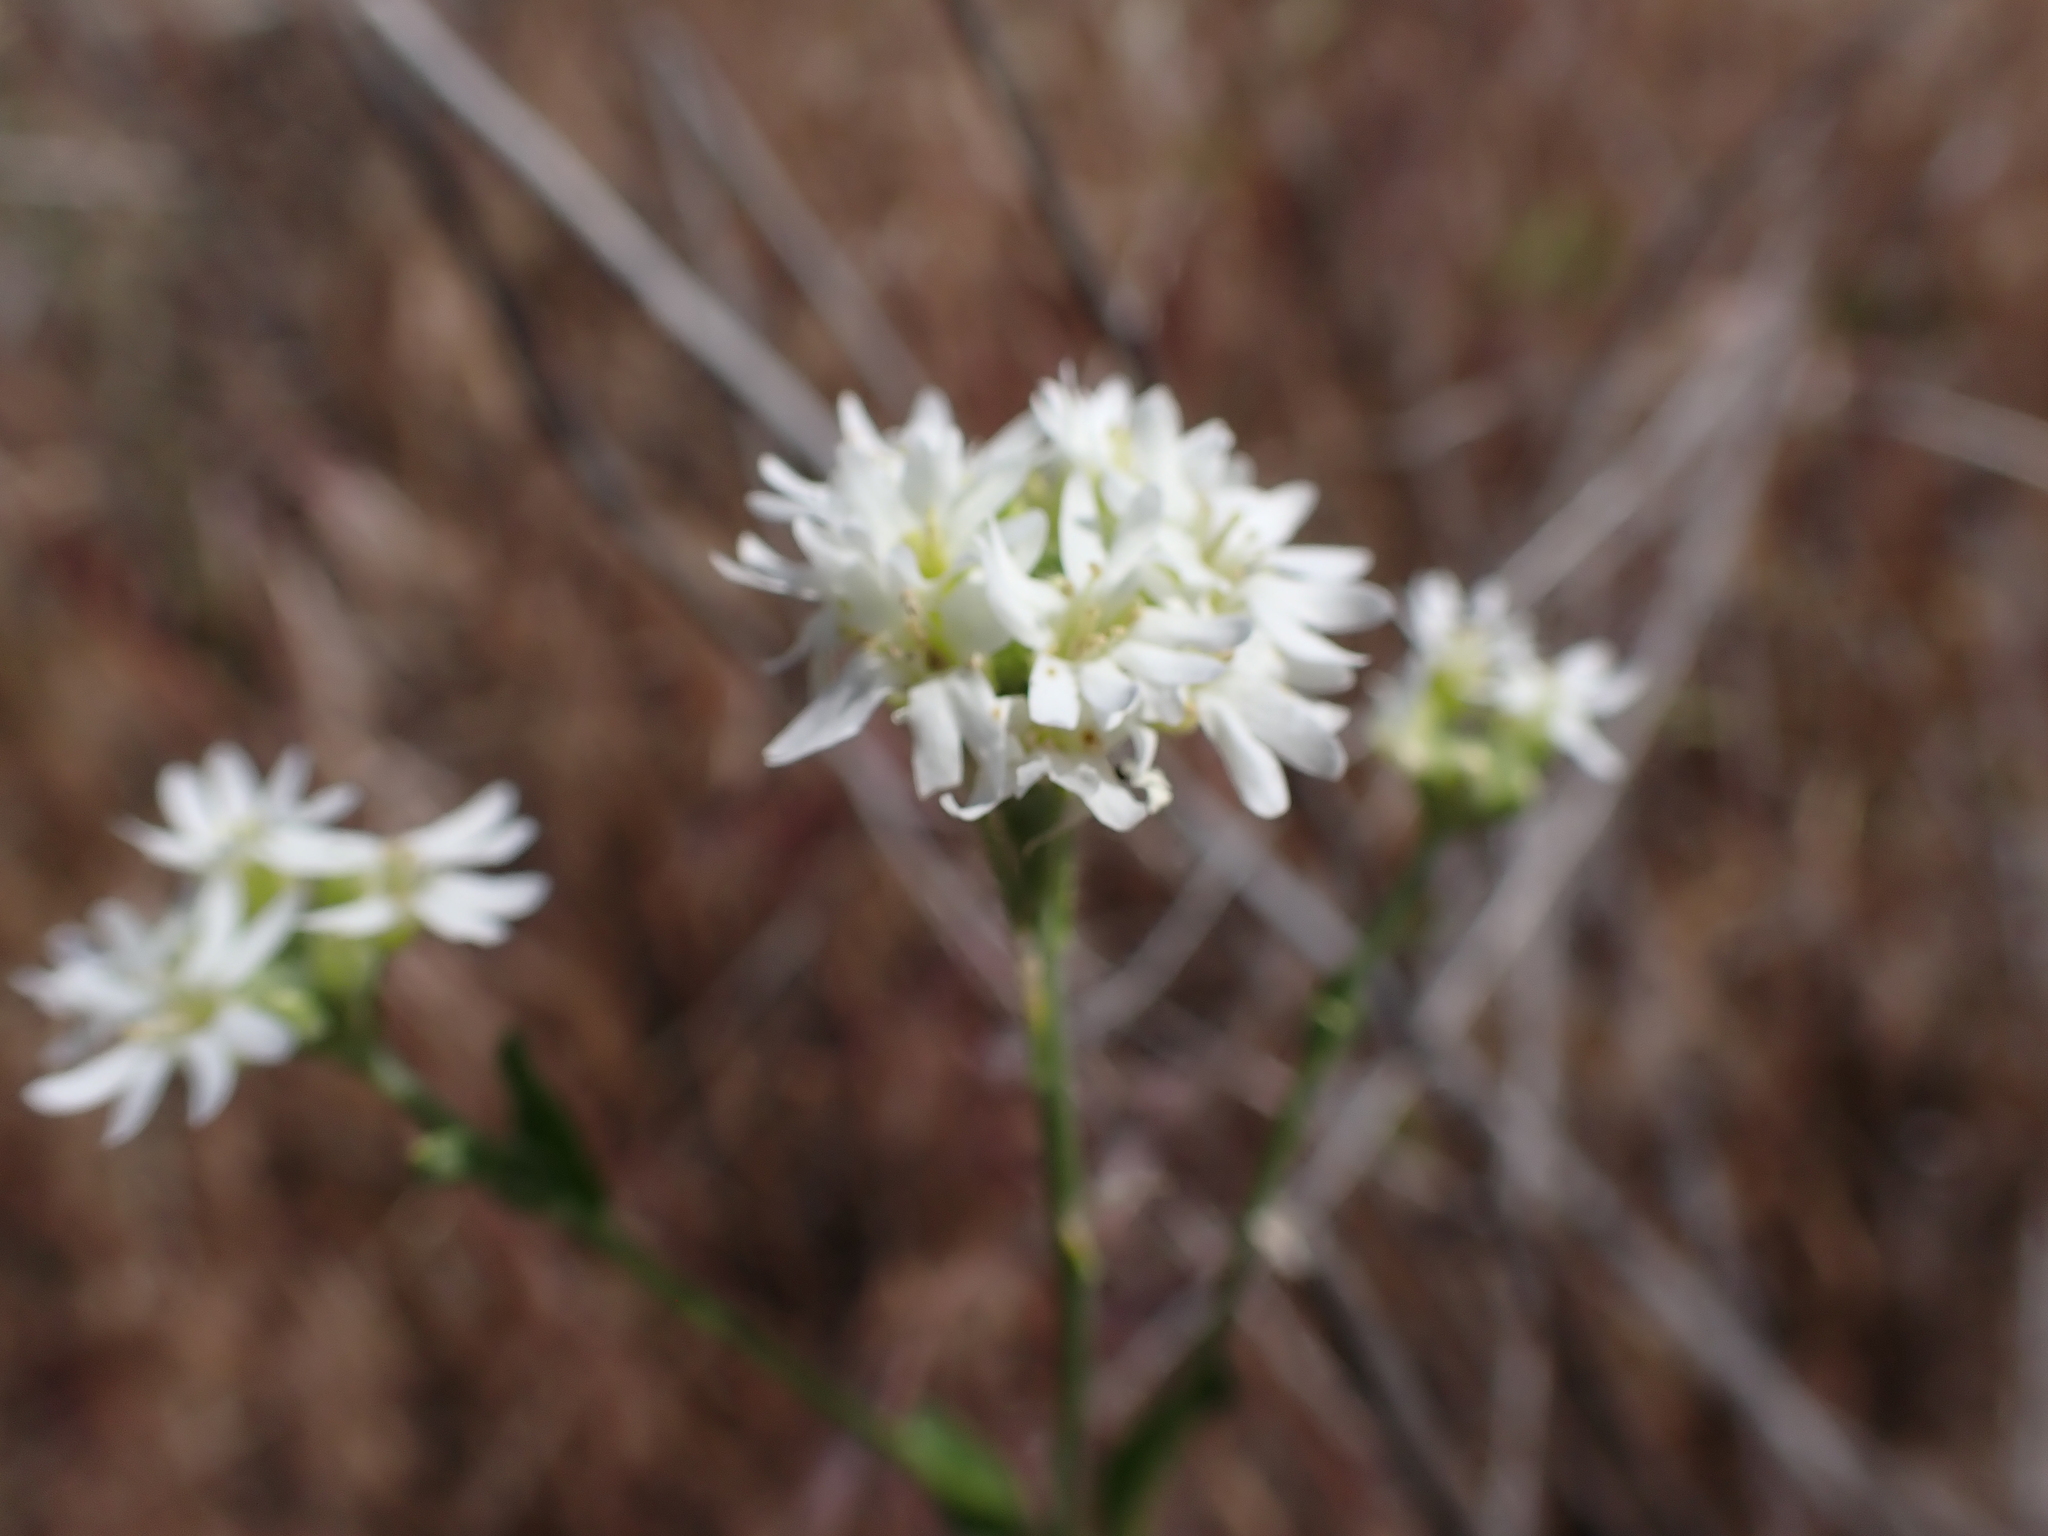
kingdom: Plantae
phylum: Tracheophyta
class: Magnoliopsida
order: Brassicales
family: Brassicaceae
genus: Berteroa
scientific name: Berteroa incana
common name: Hoary alison
